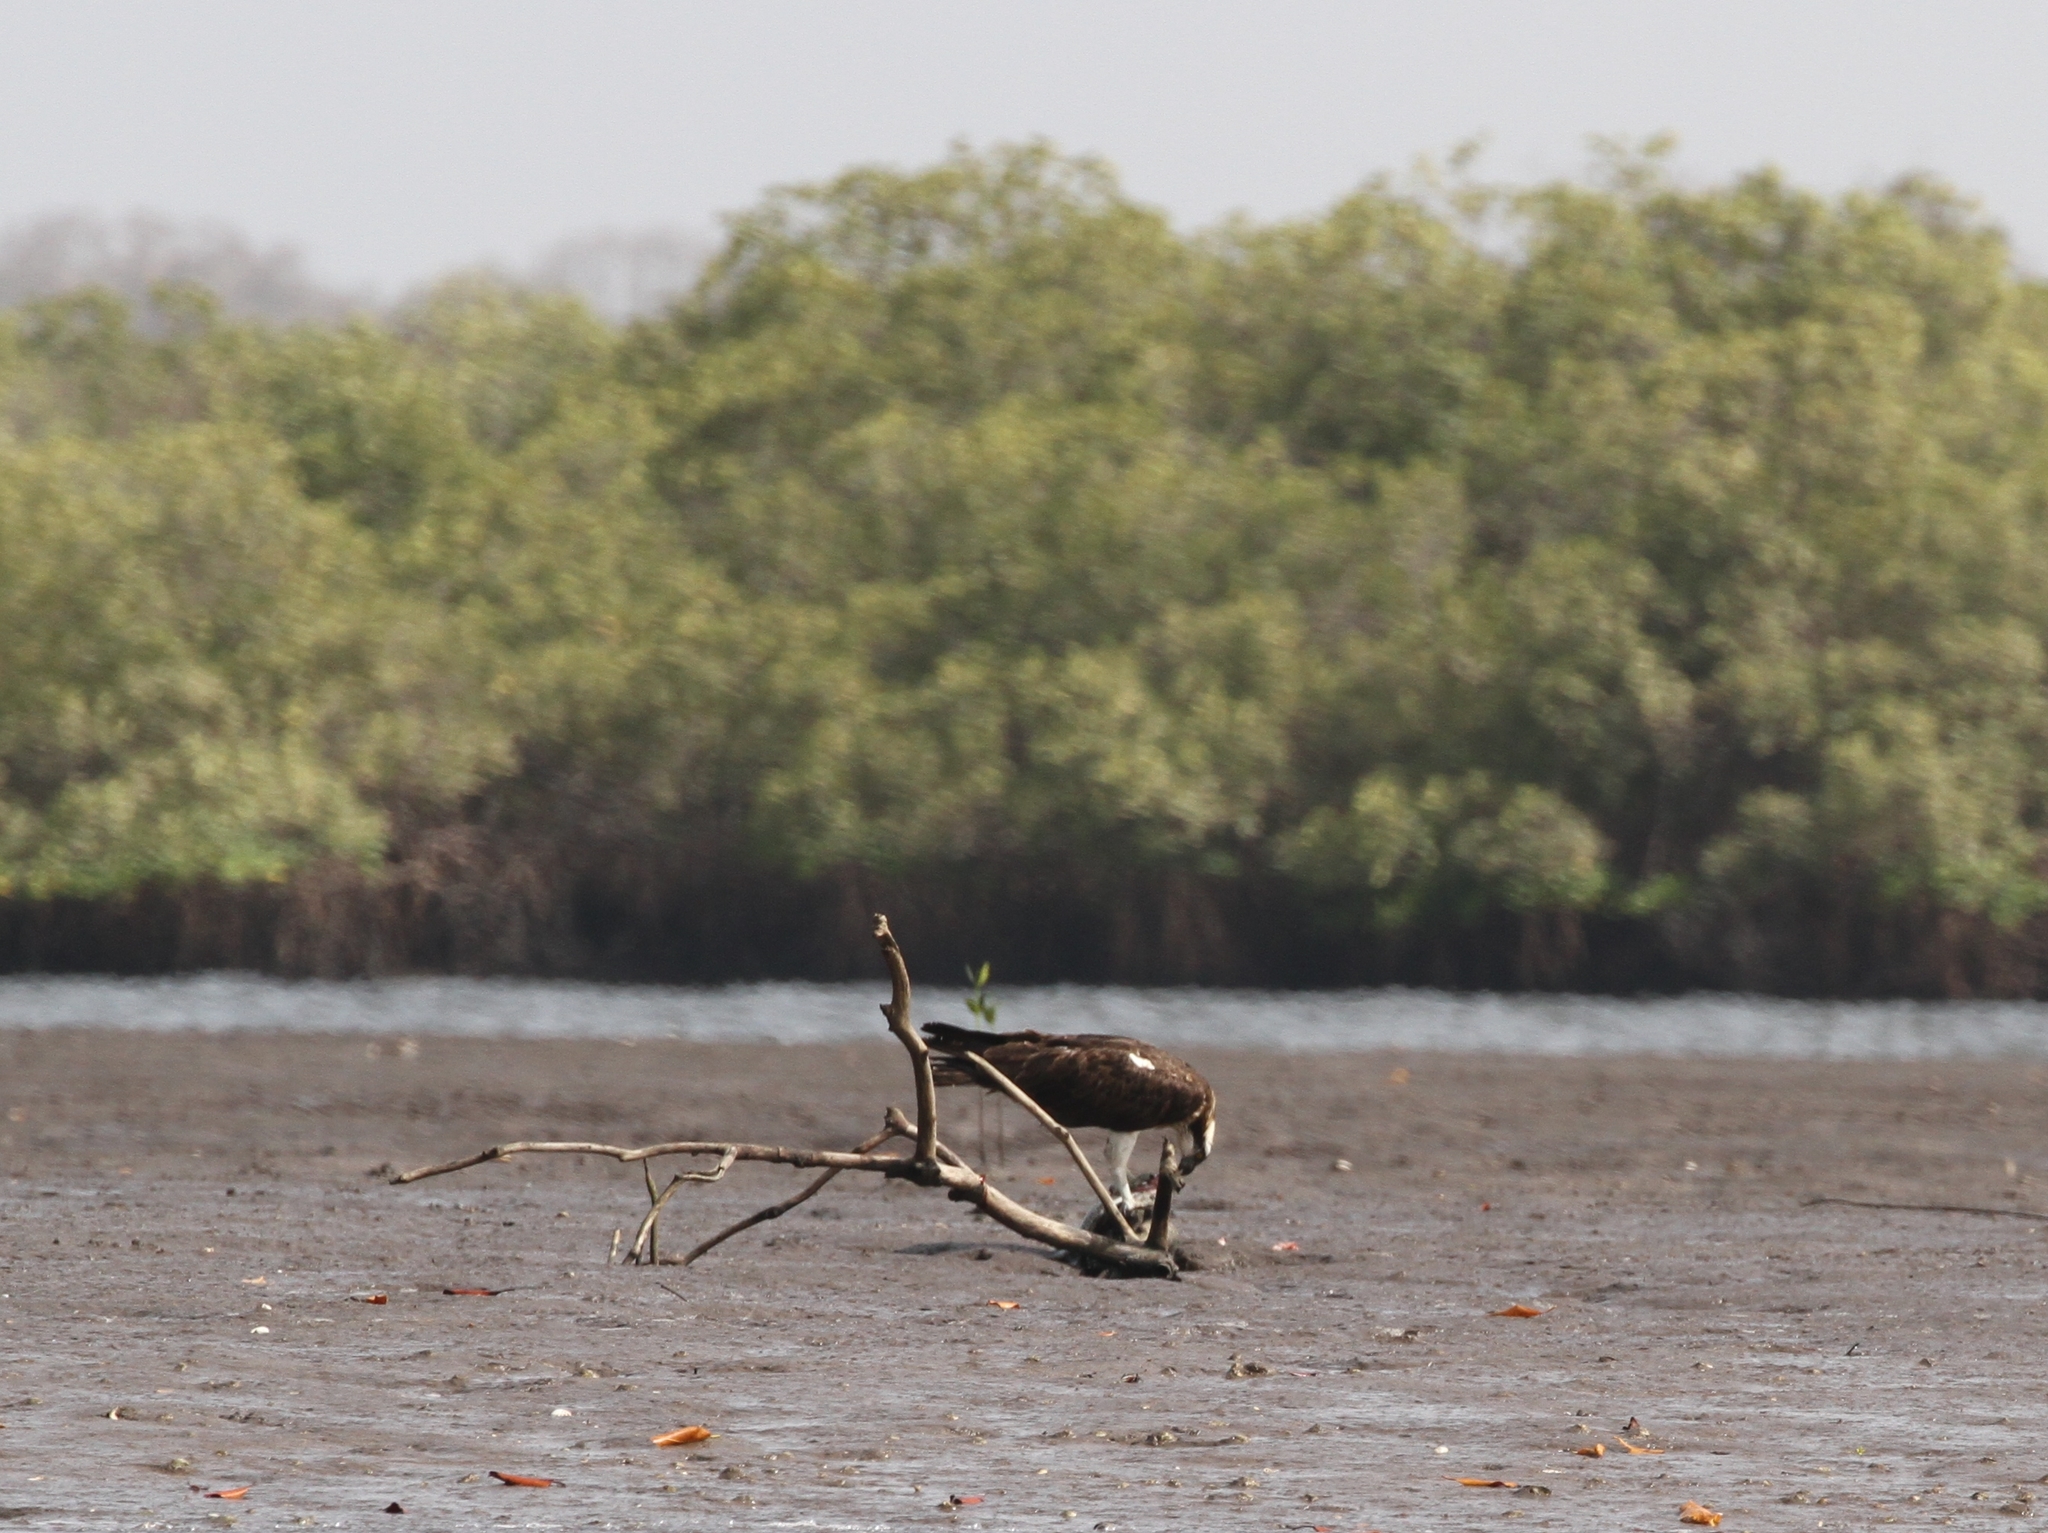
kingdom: Animalia
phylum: Chordata
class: Aves
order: Accipitriformes
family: Pandionidae
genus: Pandion
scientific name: Pandion haliaetus
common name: Osprey
